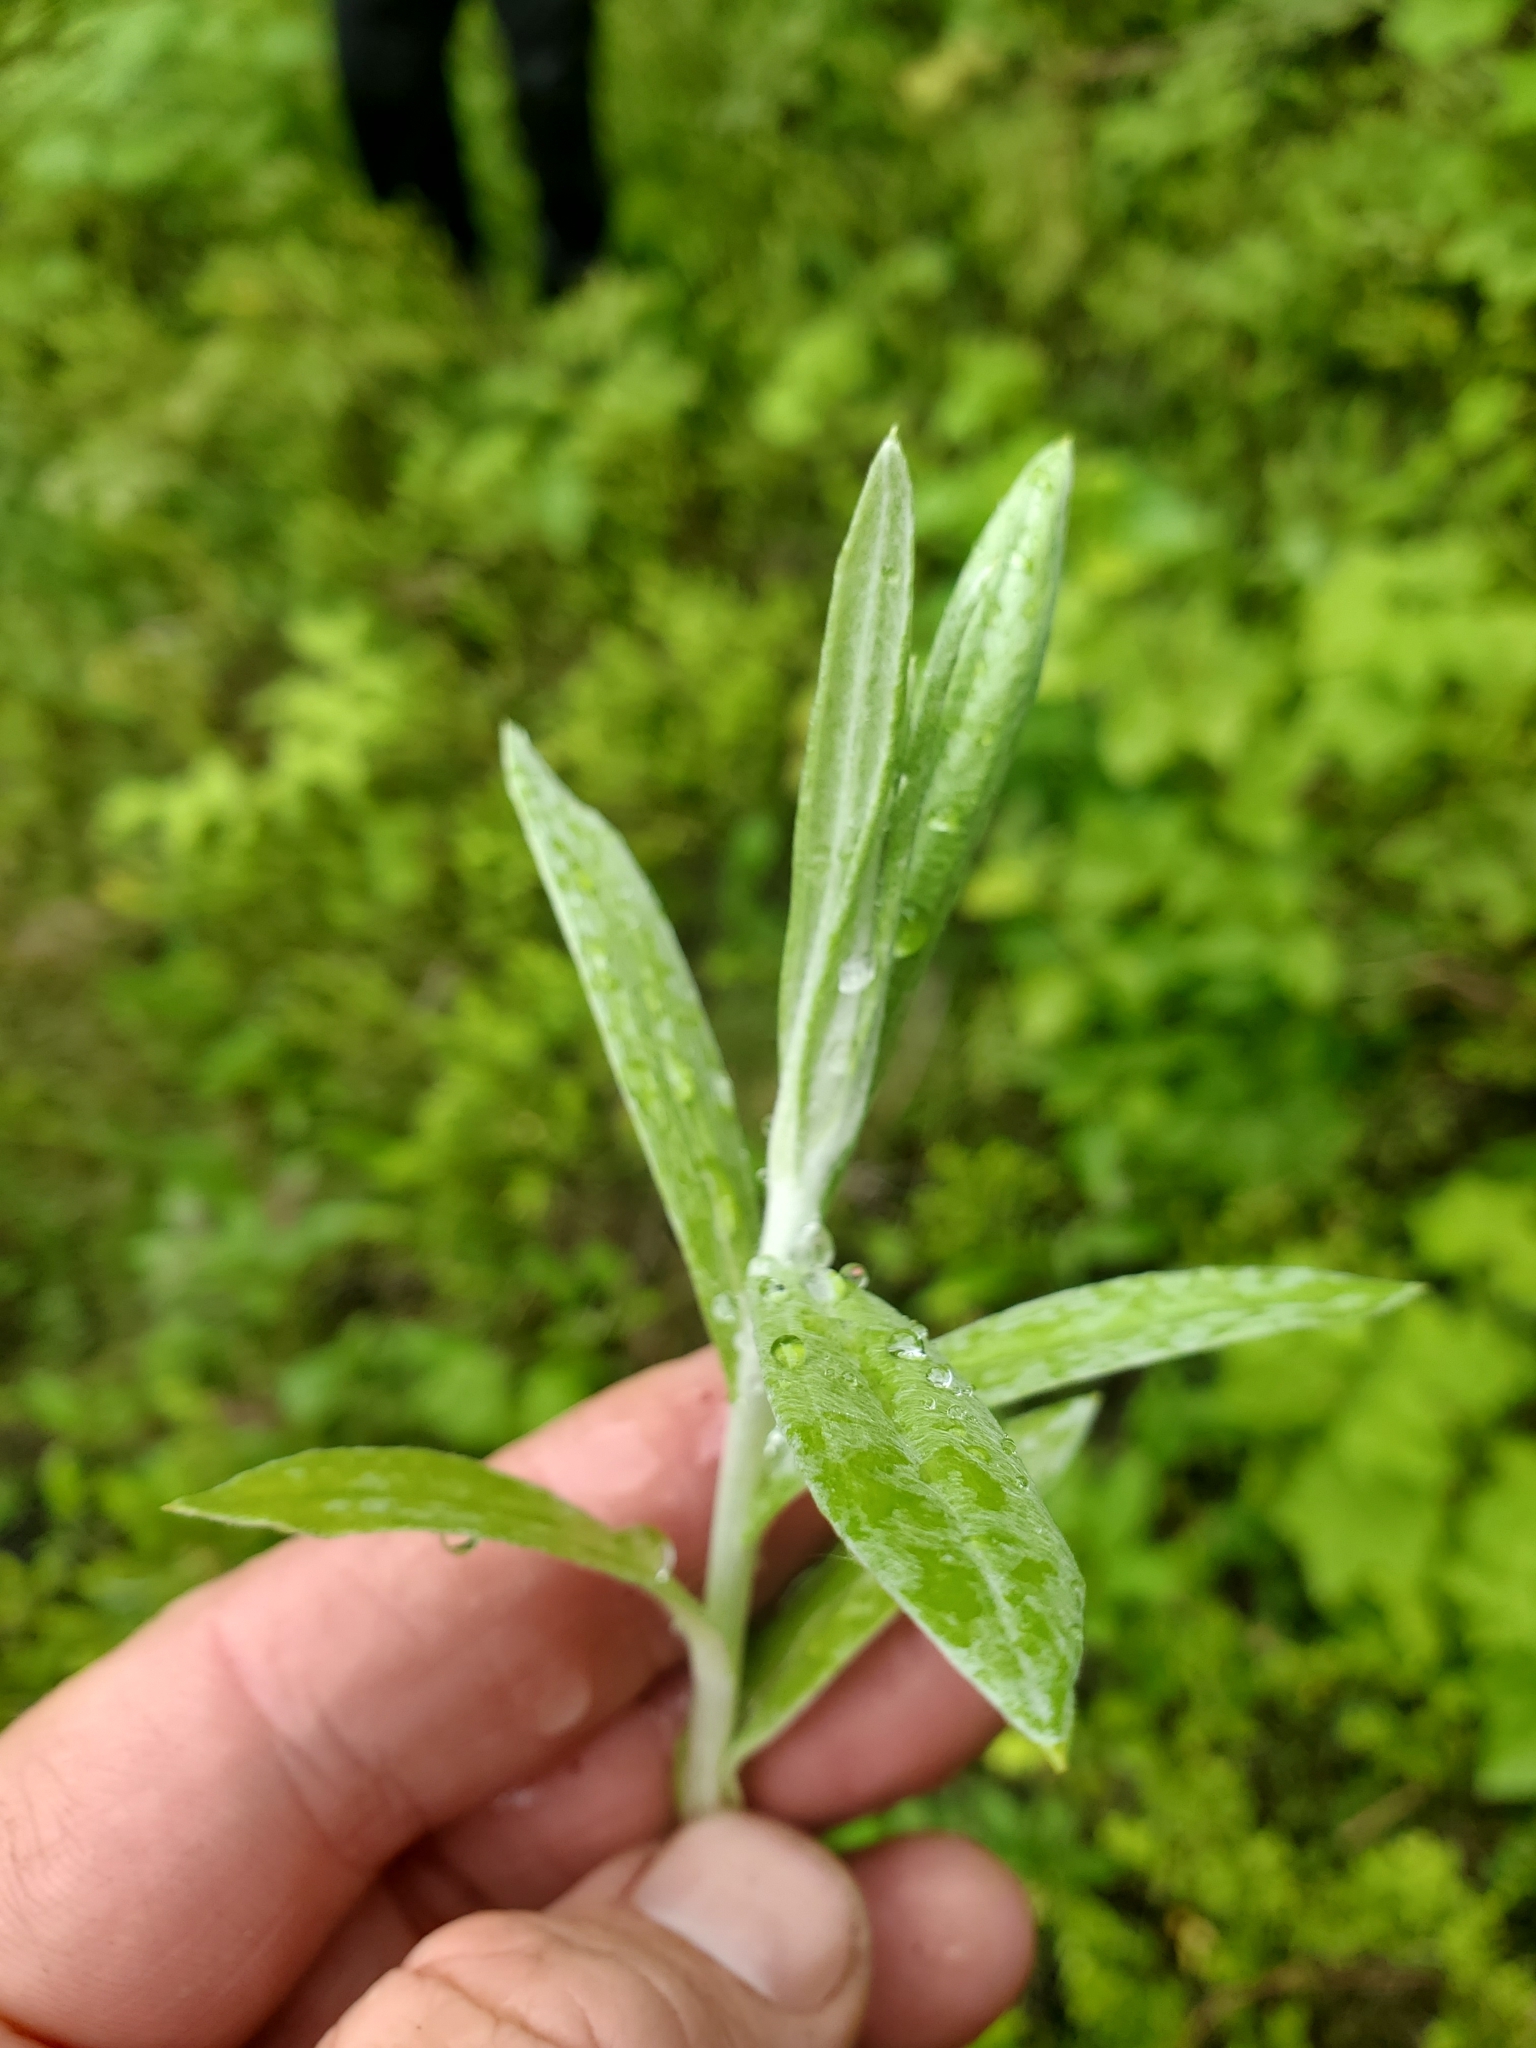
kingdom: Plantae
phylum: Tracheophyta
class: Magnoliopsida
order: Asterales
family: Asteraceae
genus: Anaphalis
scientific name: Anaphalis margaritacea
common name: Pearly everlasting
